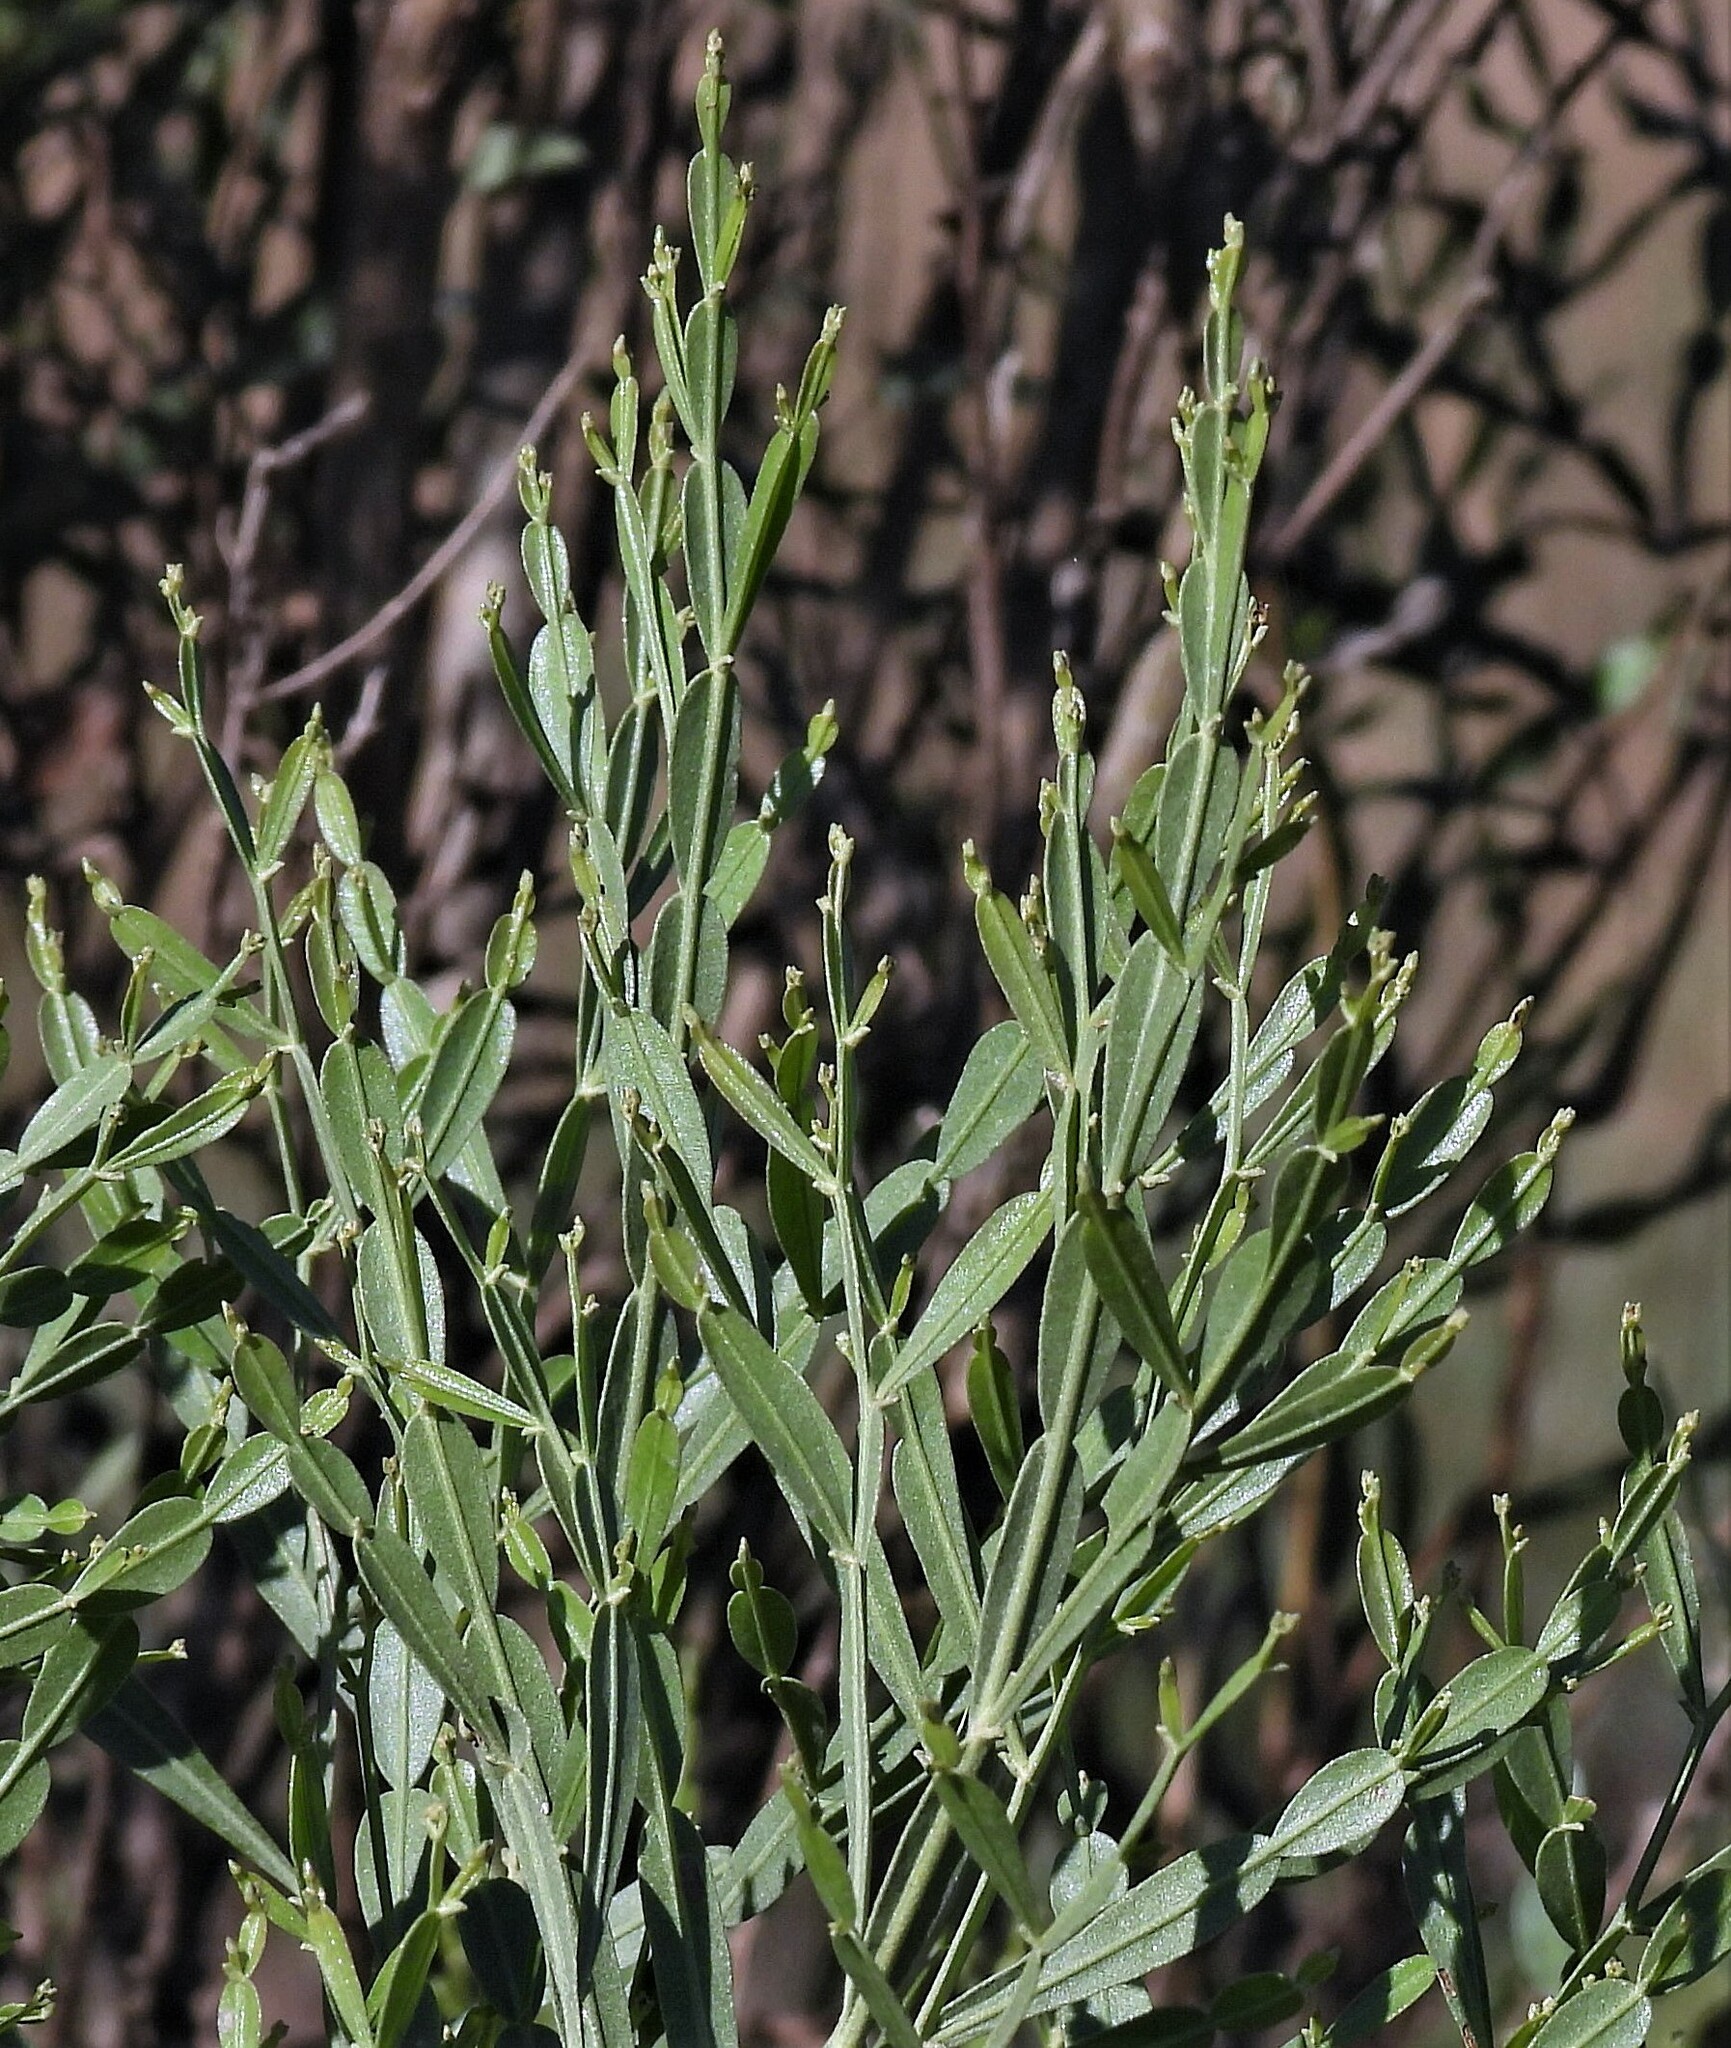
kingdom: Plantae
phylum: Tracheophyta
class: Magnoliopsida
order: Asterales
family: Asteraceae
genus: Baccharis
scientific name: Baccharis articulata
